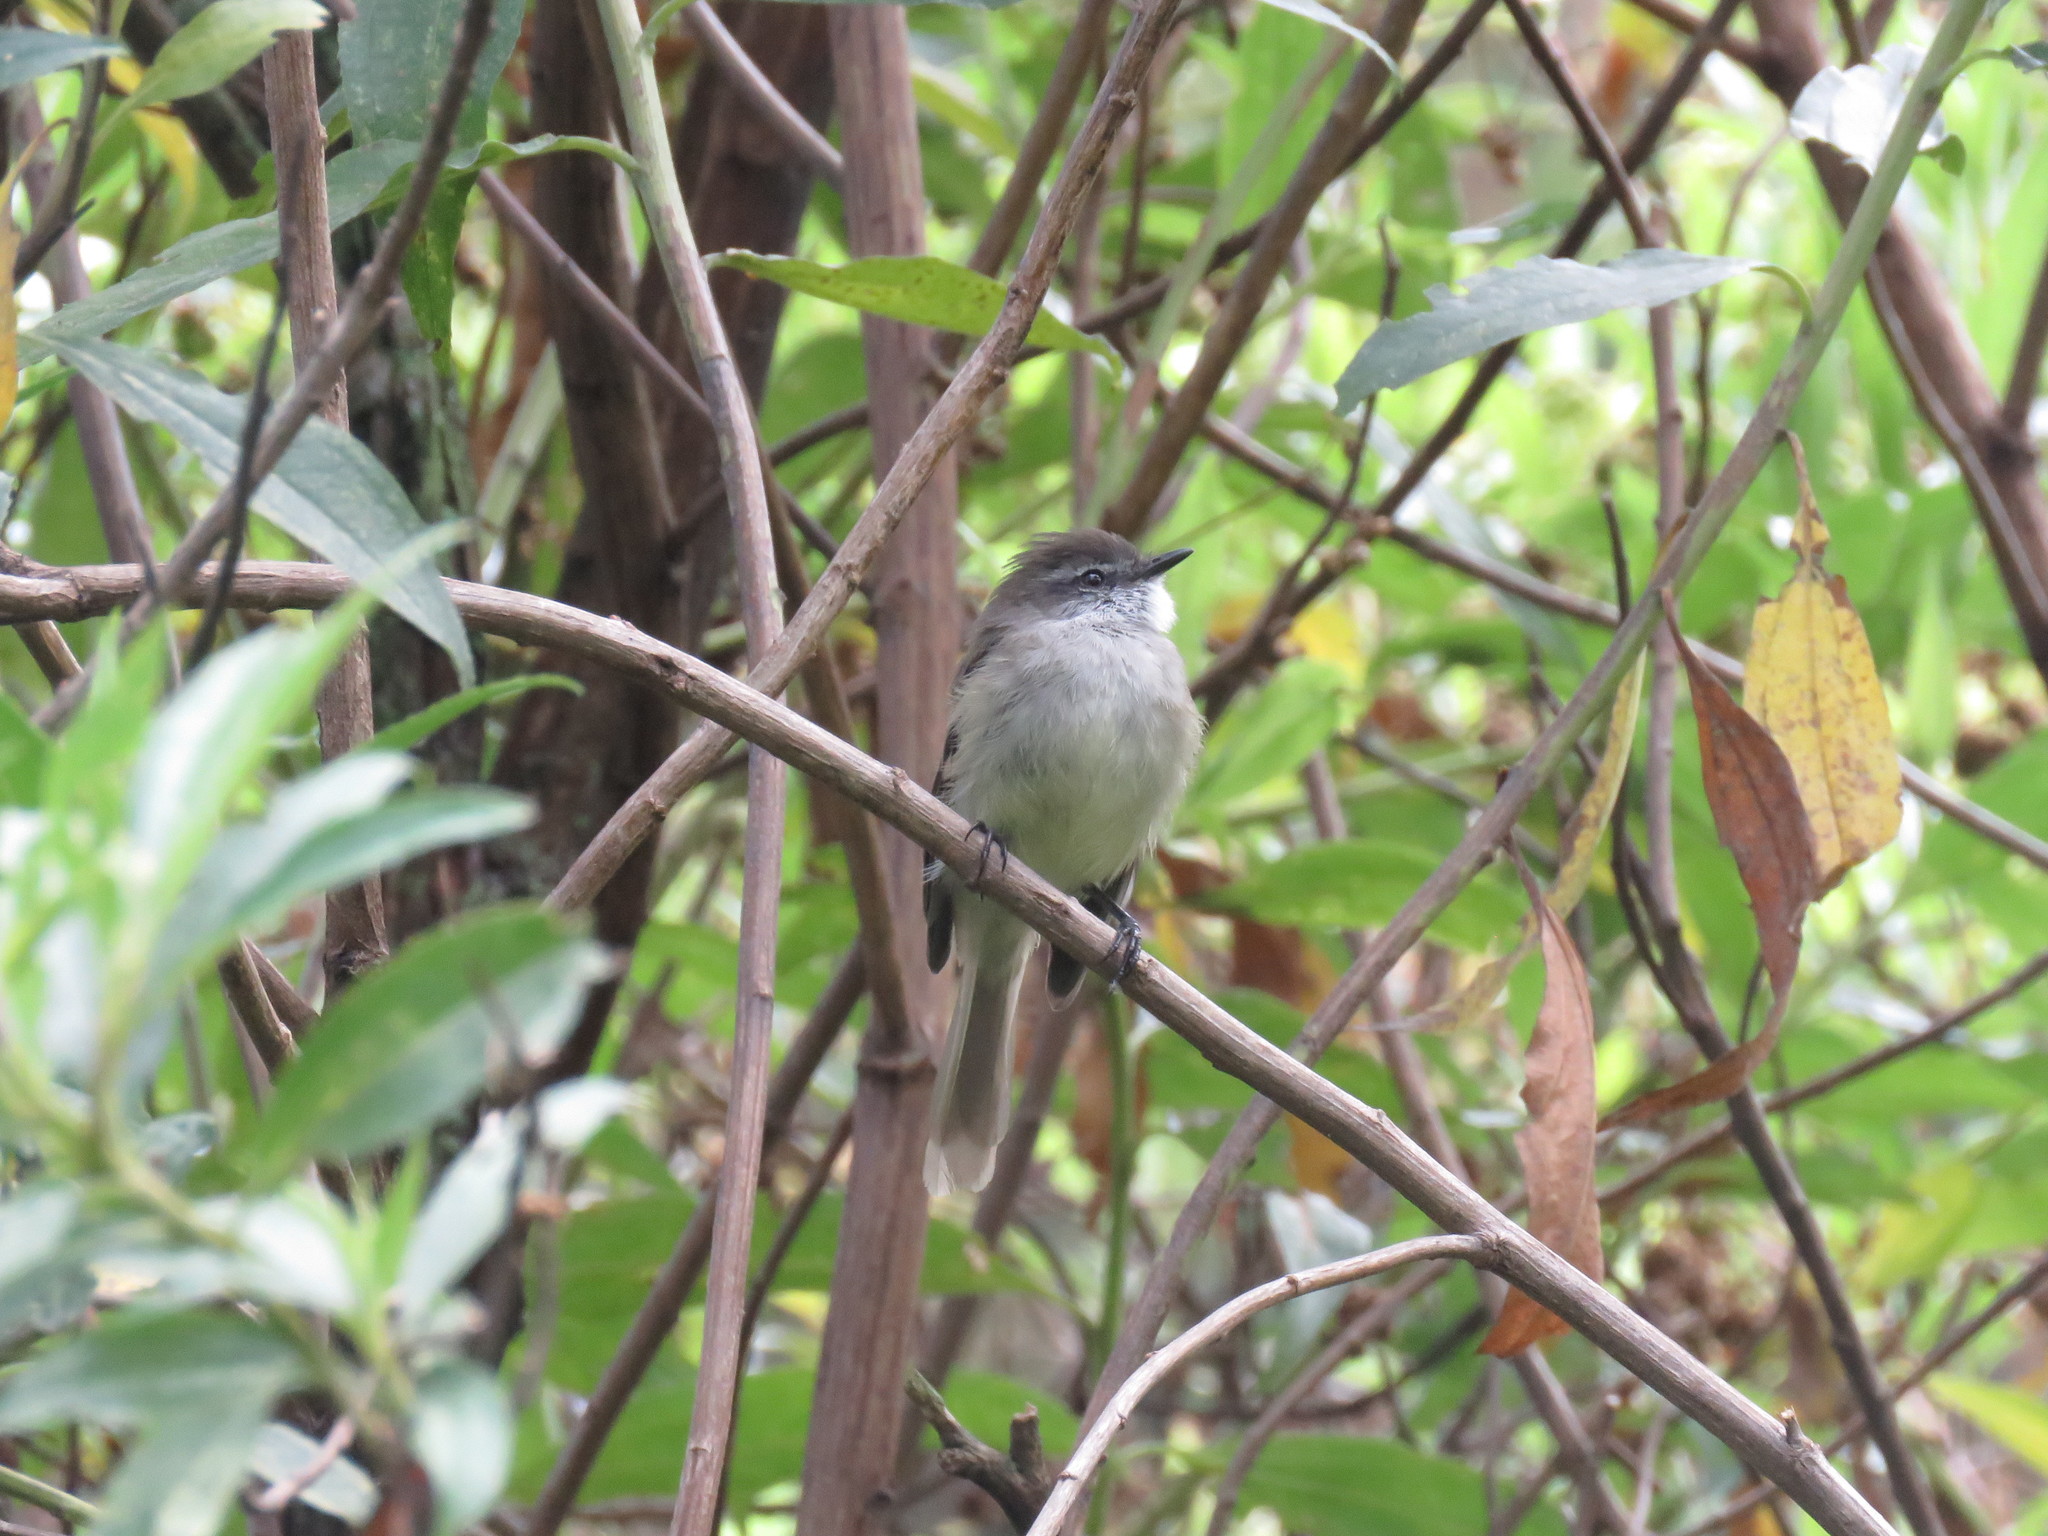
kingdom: Animalia
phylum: Chordata
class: Aves
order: Passeriformes
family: Tyrannidae
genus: Mecocerculus
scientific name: Mecocerculus leucophrys
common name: White-throated tyrannulet
